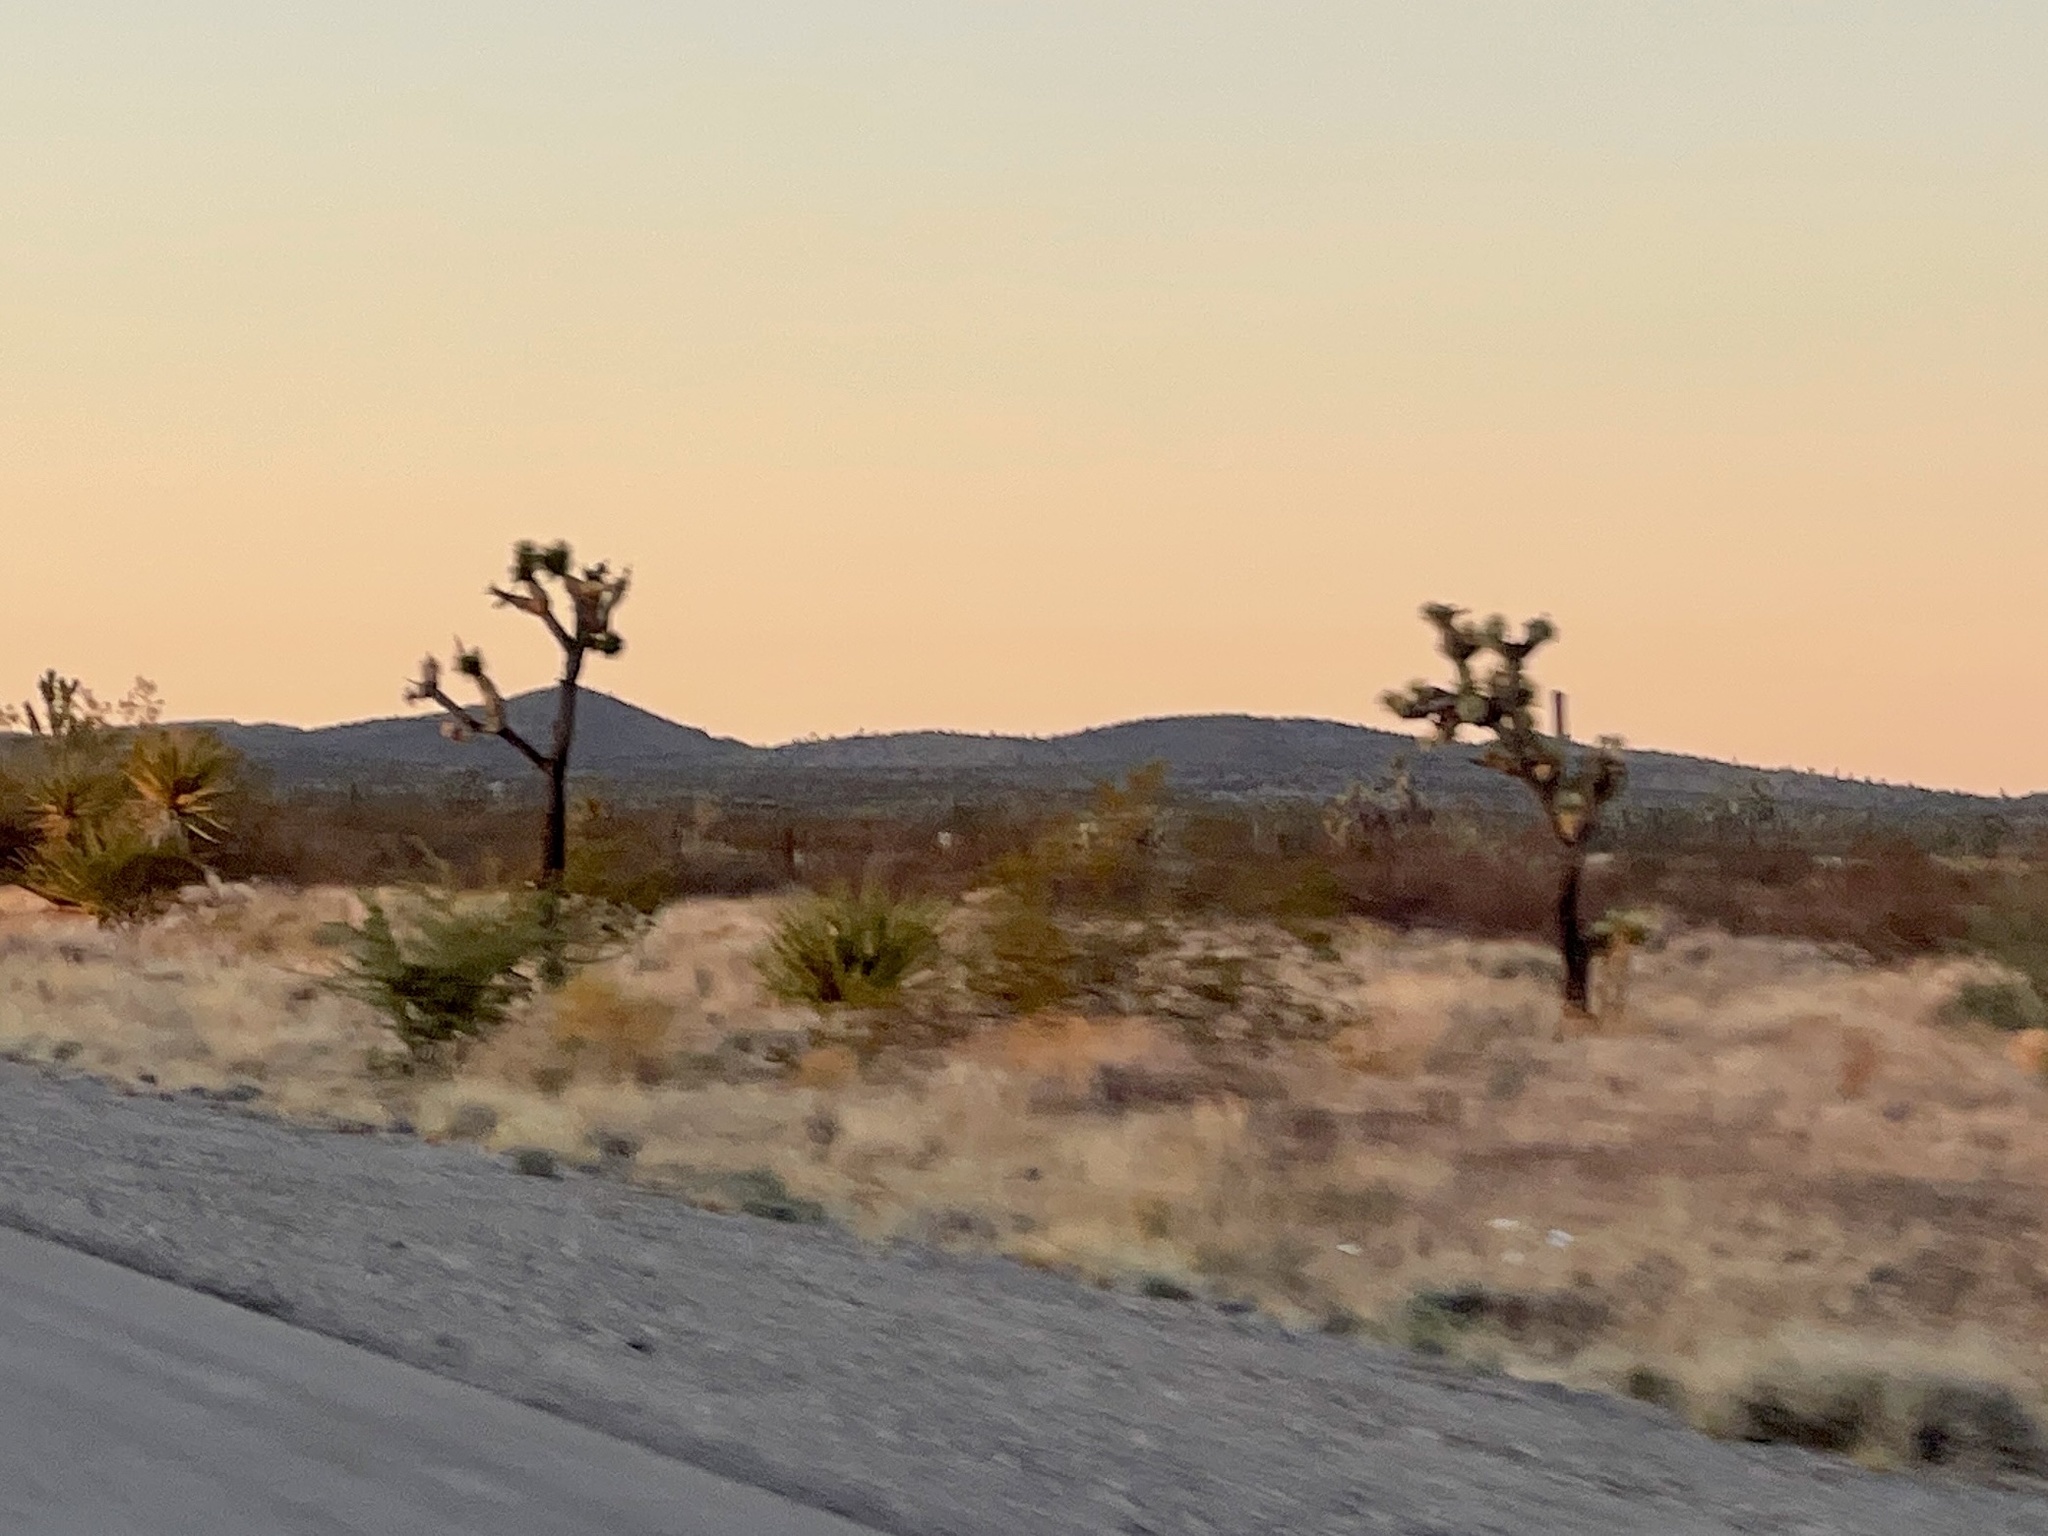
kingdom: Plantae
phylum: Tracheophyta
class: Liliopsida
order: Asparagales
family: Asparagaceae
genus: Yucca
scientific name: Yucca brevifolia
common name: Joshua tree
